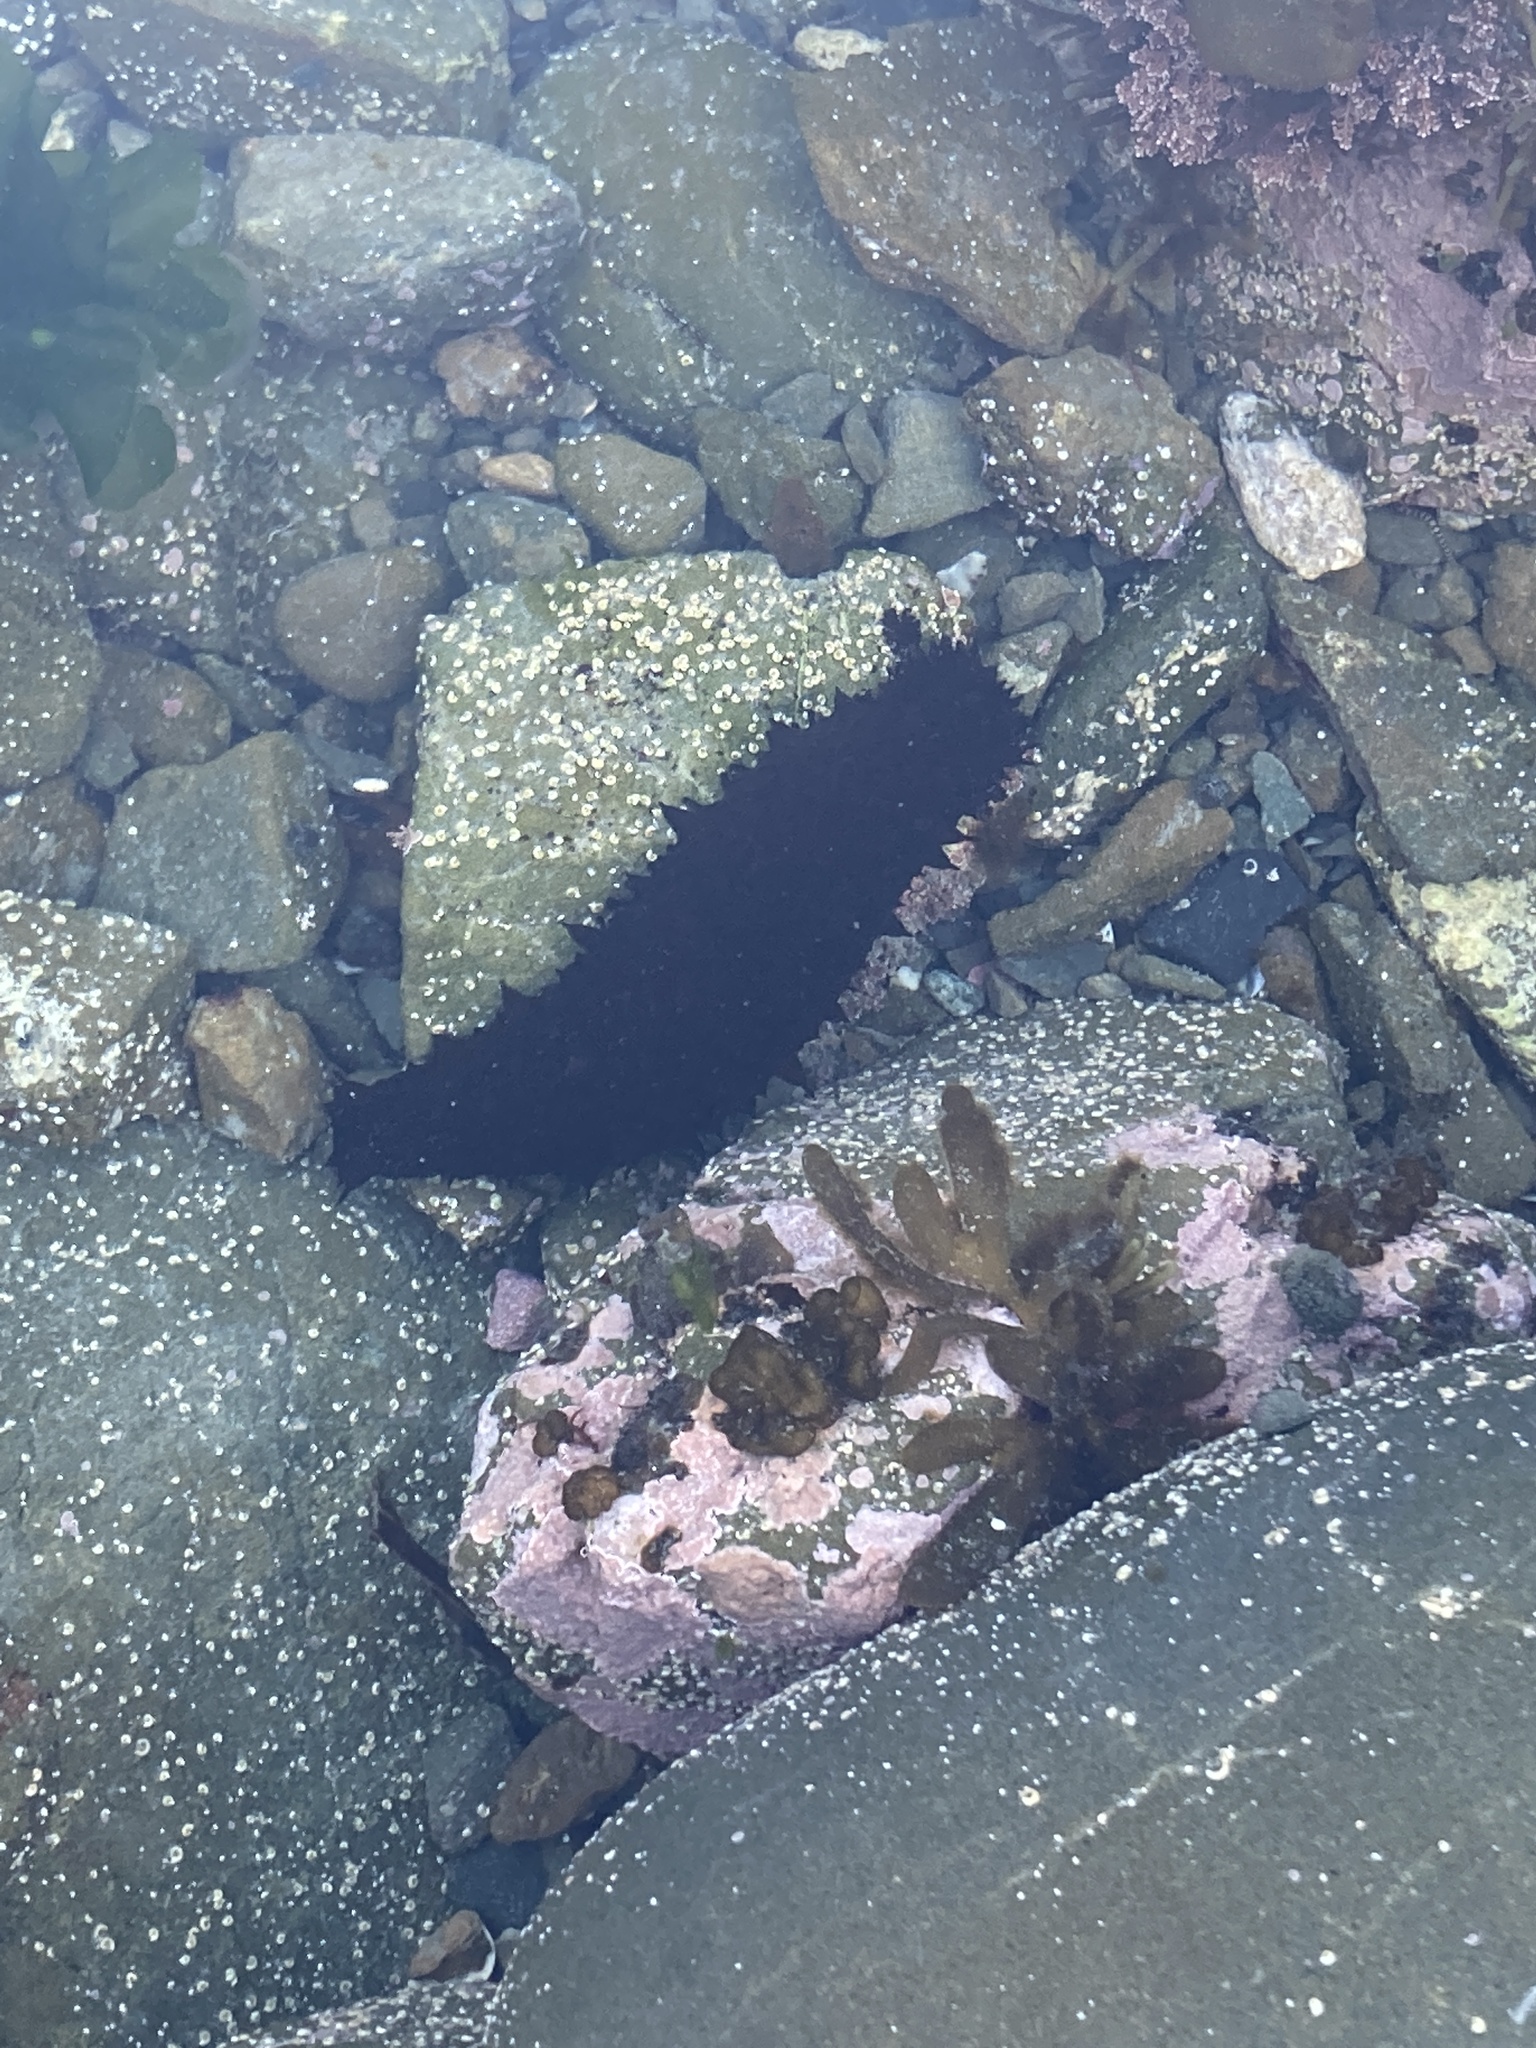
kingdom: Animalia
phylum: Echinodermata
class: Holothuroidea
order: Synallactida
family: Stichopodidae
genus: Australostichopus
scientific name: Australostichopus mollis
